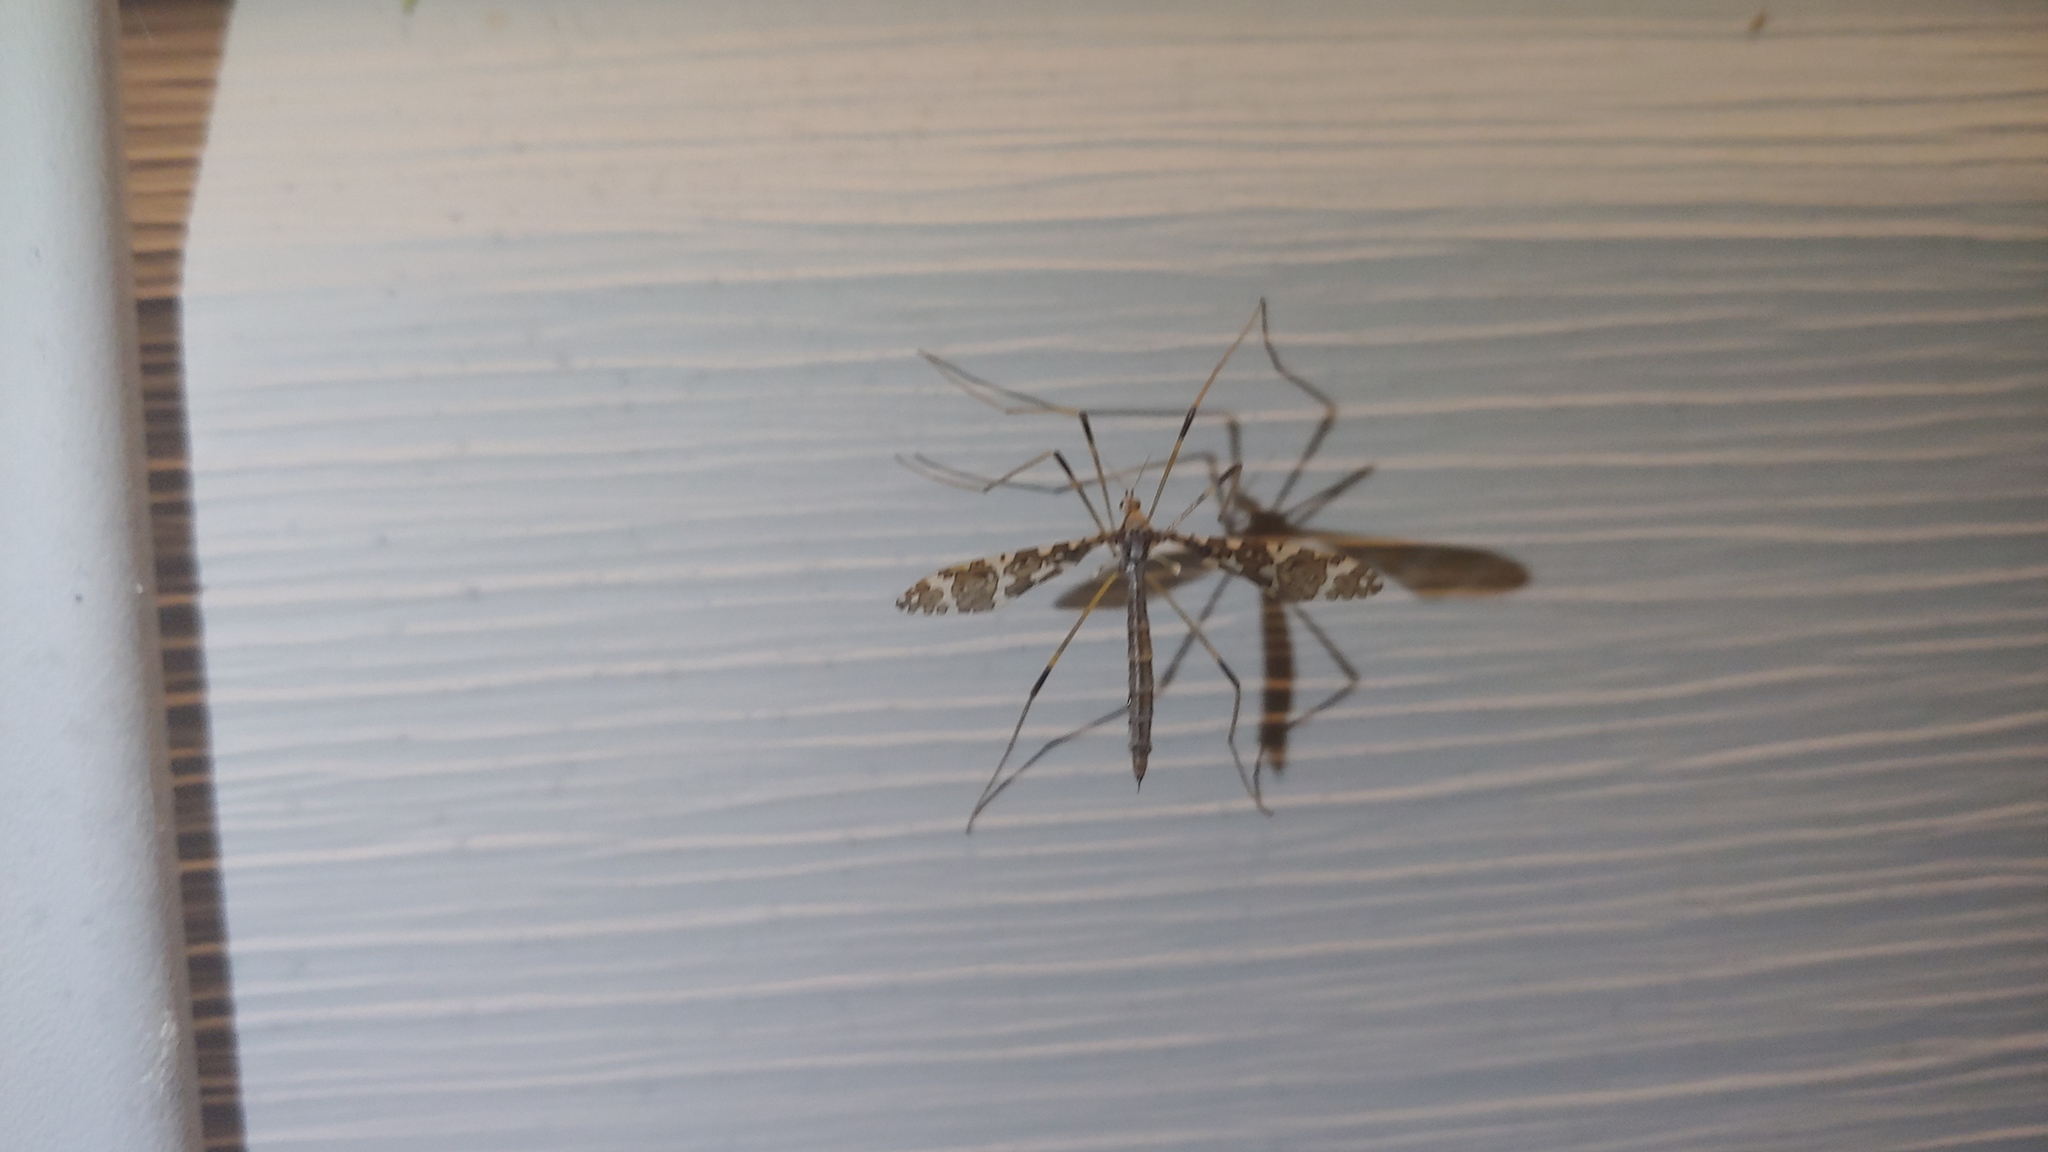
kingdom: Animalia
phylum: Arthropoda
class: Insecta
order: Diptera
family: Limoniidae
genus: Epiphragma
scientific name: Epiphragma fasciapenne
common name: Band-winged crane fly
